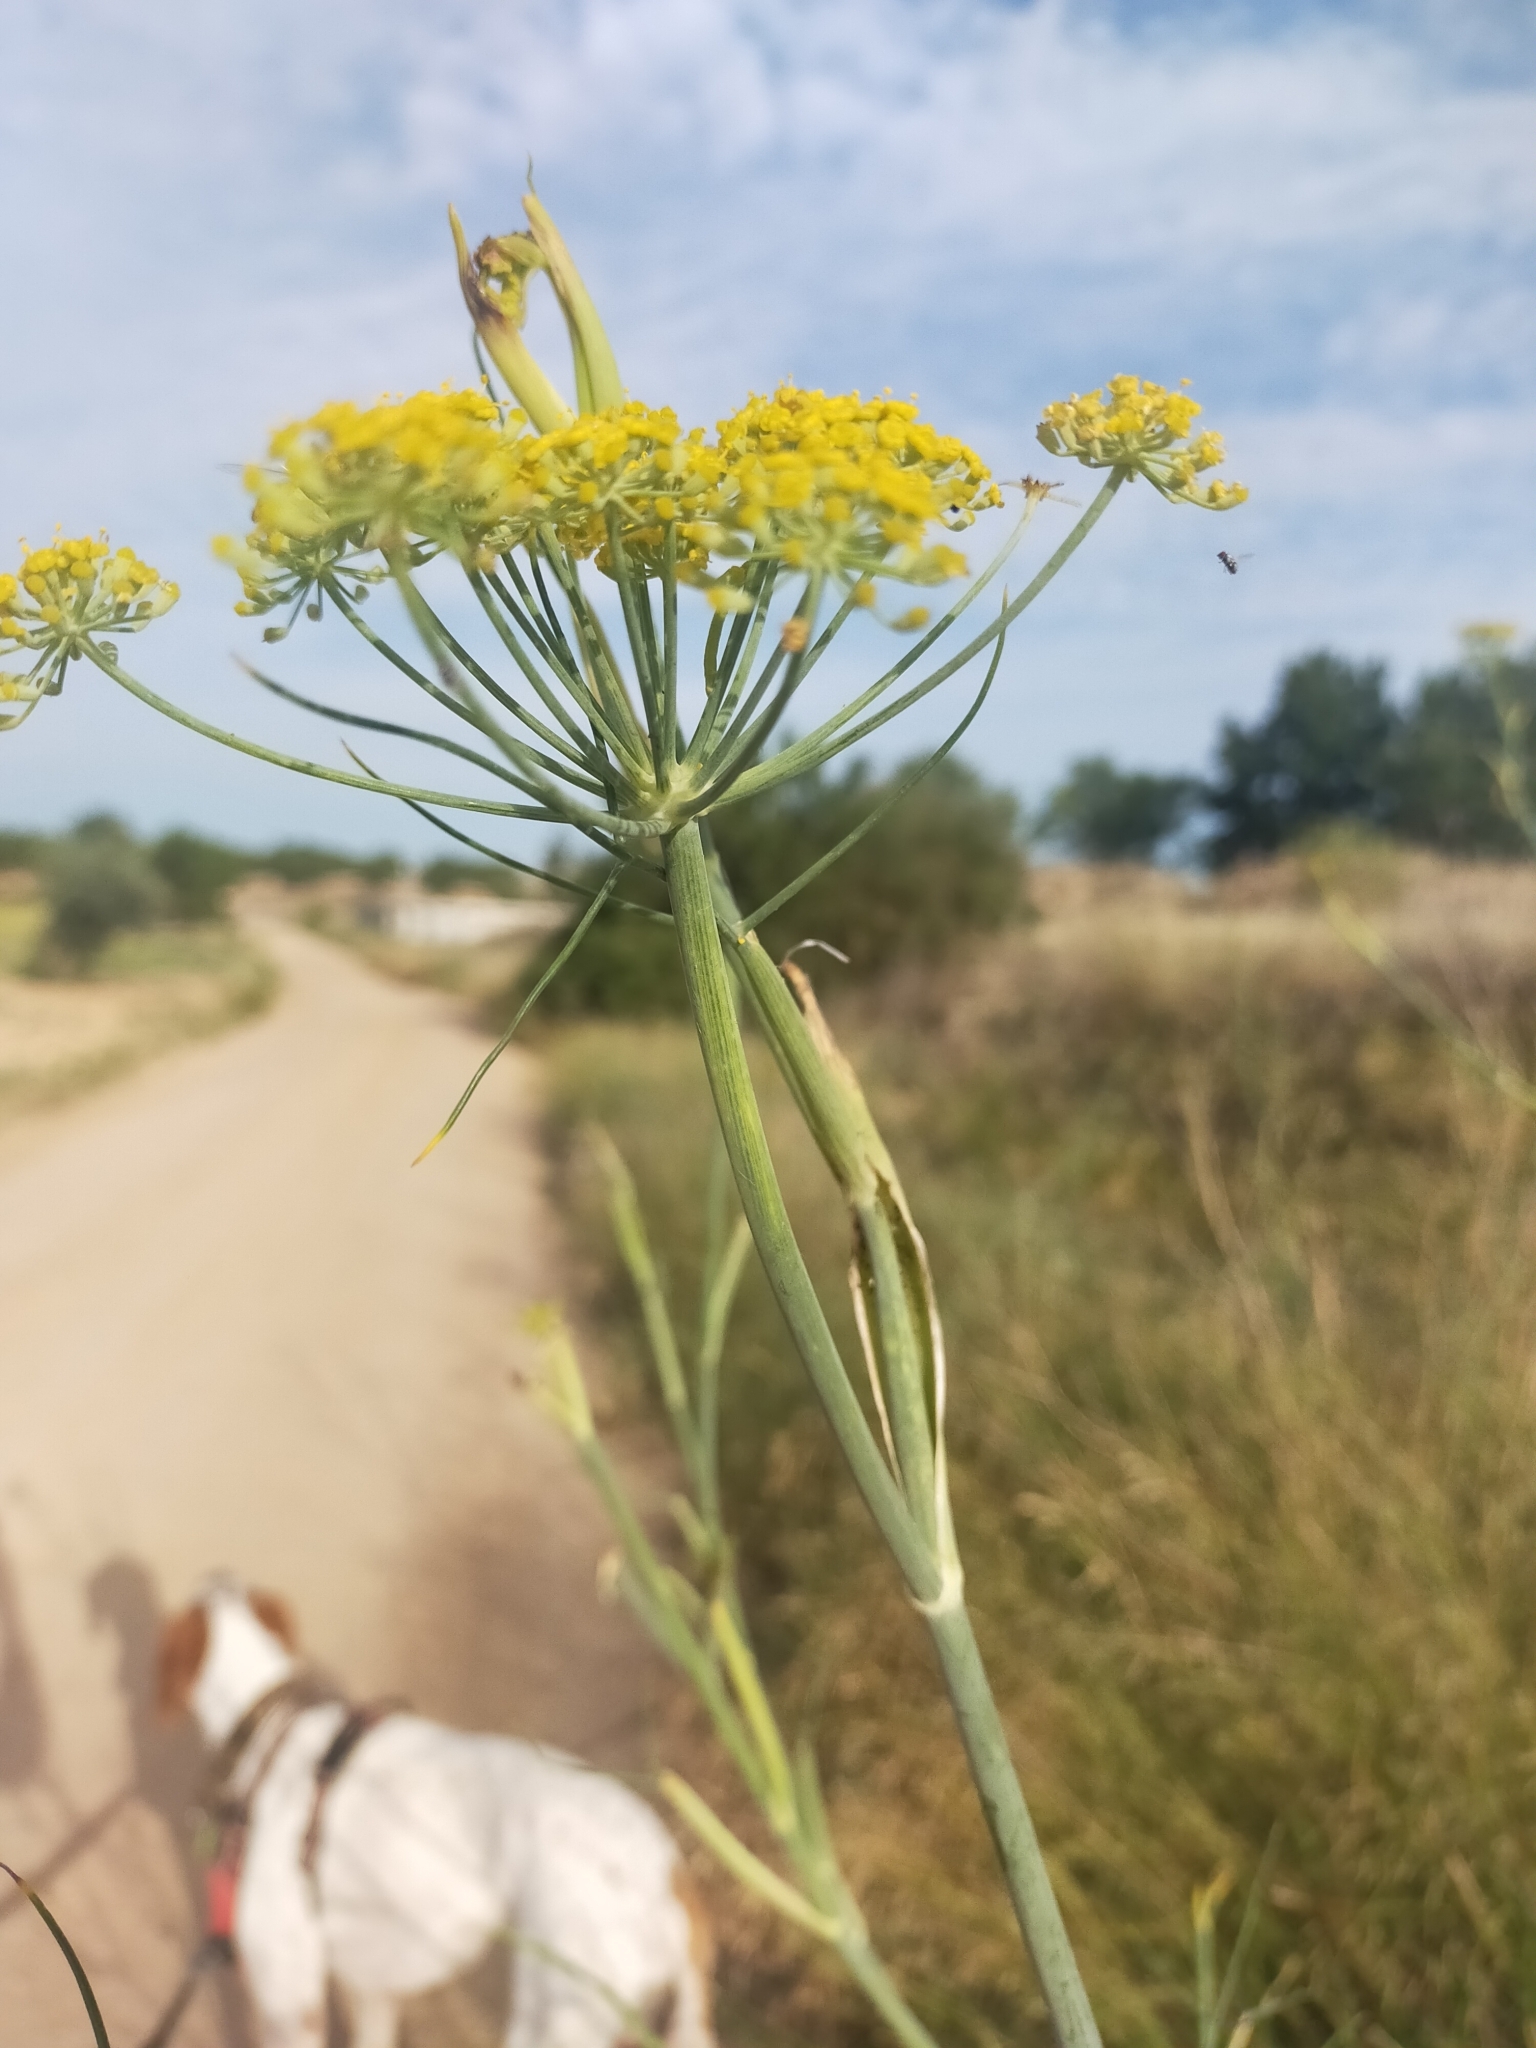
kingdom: Plantae
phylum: Tracheophyta
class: Magnoliopsida
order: Apiales
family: Apiaceae
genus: Foeniculum
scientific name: Foeniculum vulgare
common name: Fennel
